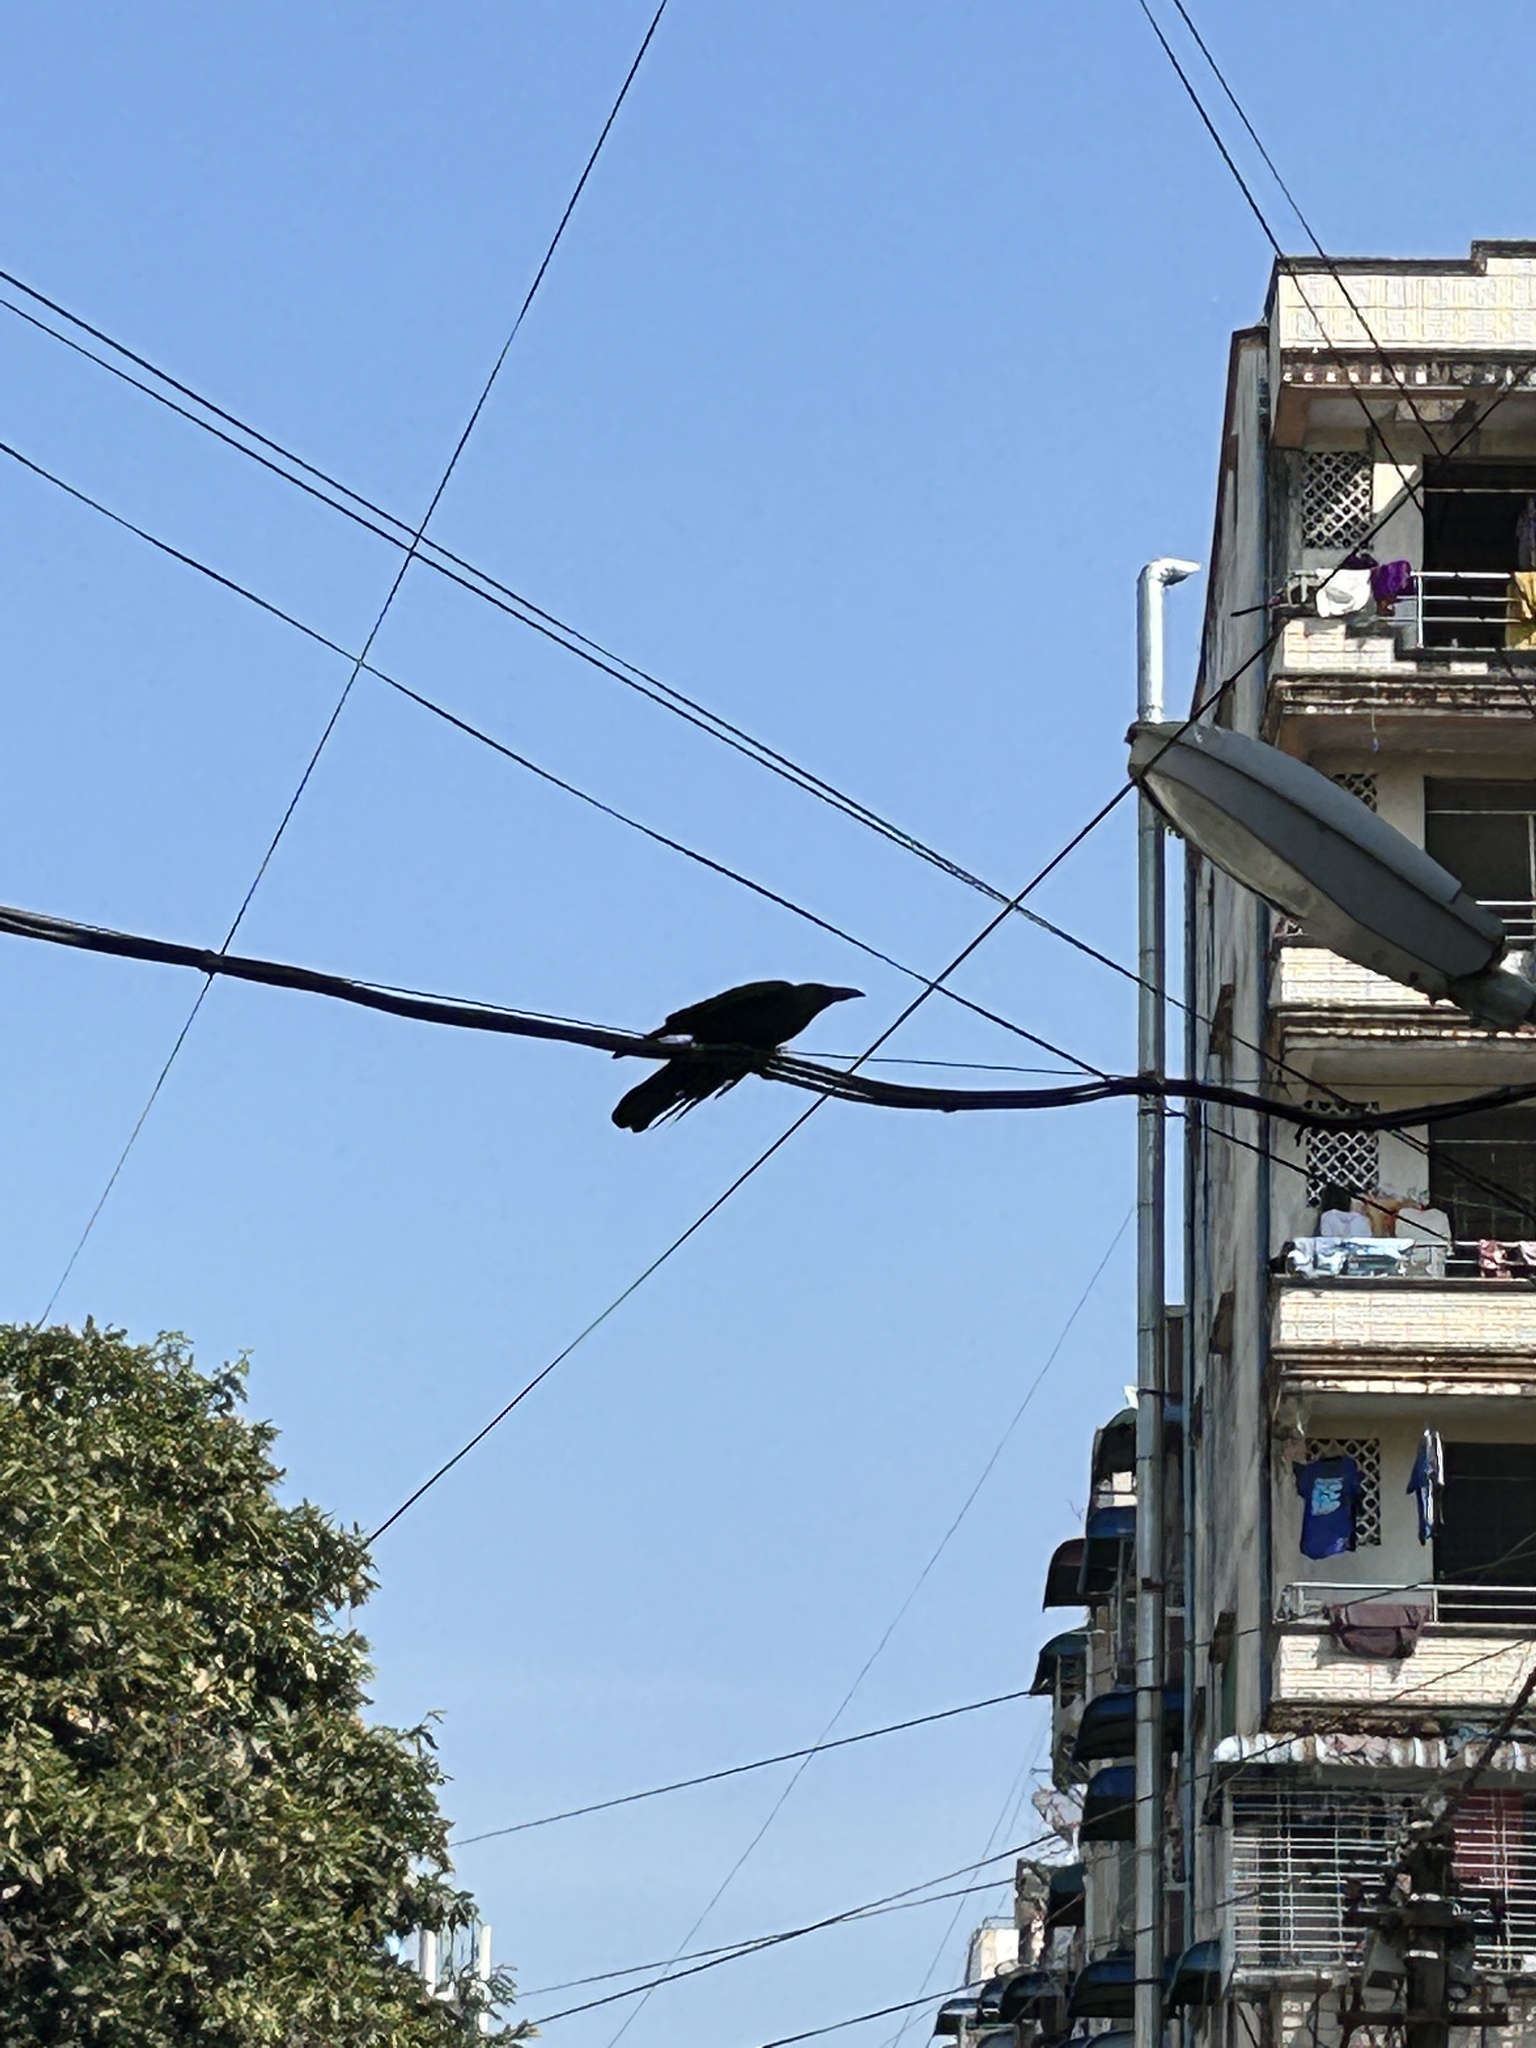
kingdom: Animalia
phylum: Chordata
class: Aves
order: Passeriformes
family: Corvidae
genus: Corvus
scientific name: Corvus splendens
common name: House crow
